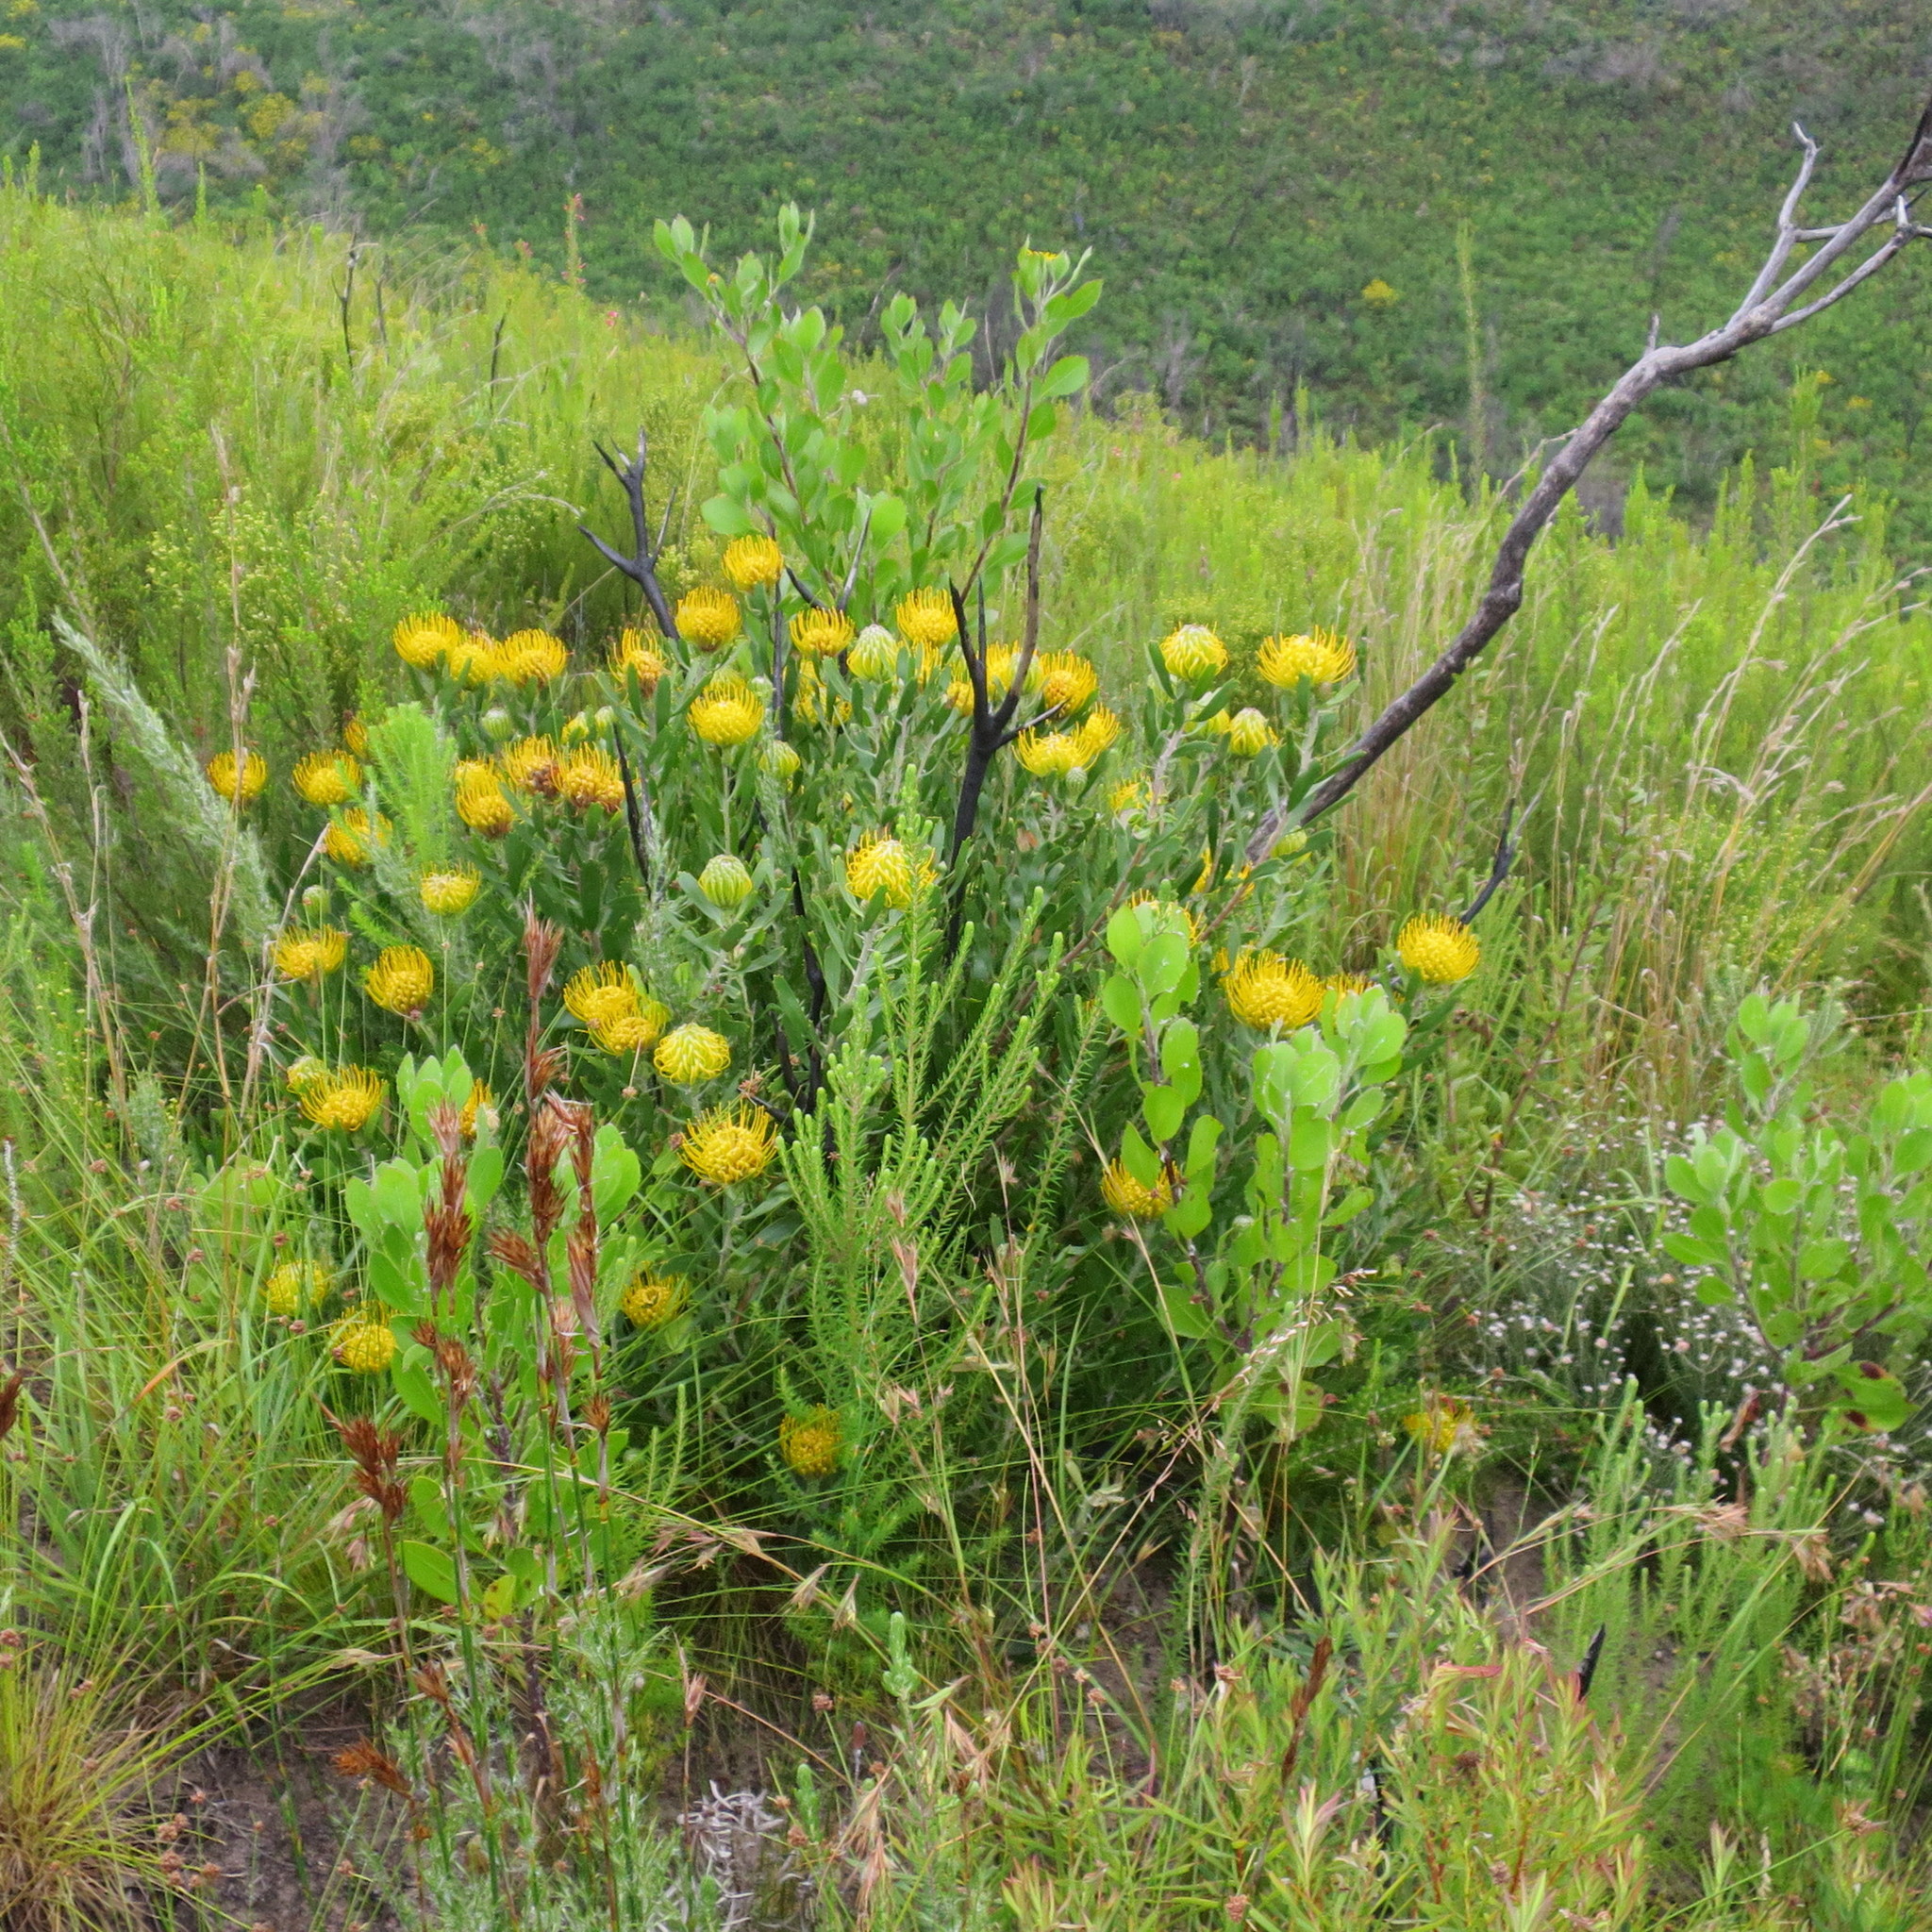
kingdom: Plantae
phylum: Tracheophyta
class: Magnoliopsida
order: Proteales
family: Proteaceae
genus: Leucospermum
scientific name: Leucospermum cuneiforme
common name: Common pincushion
